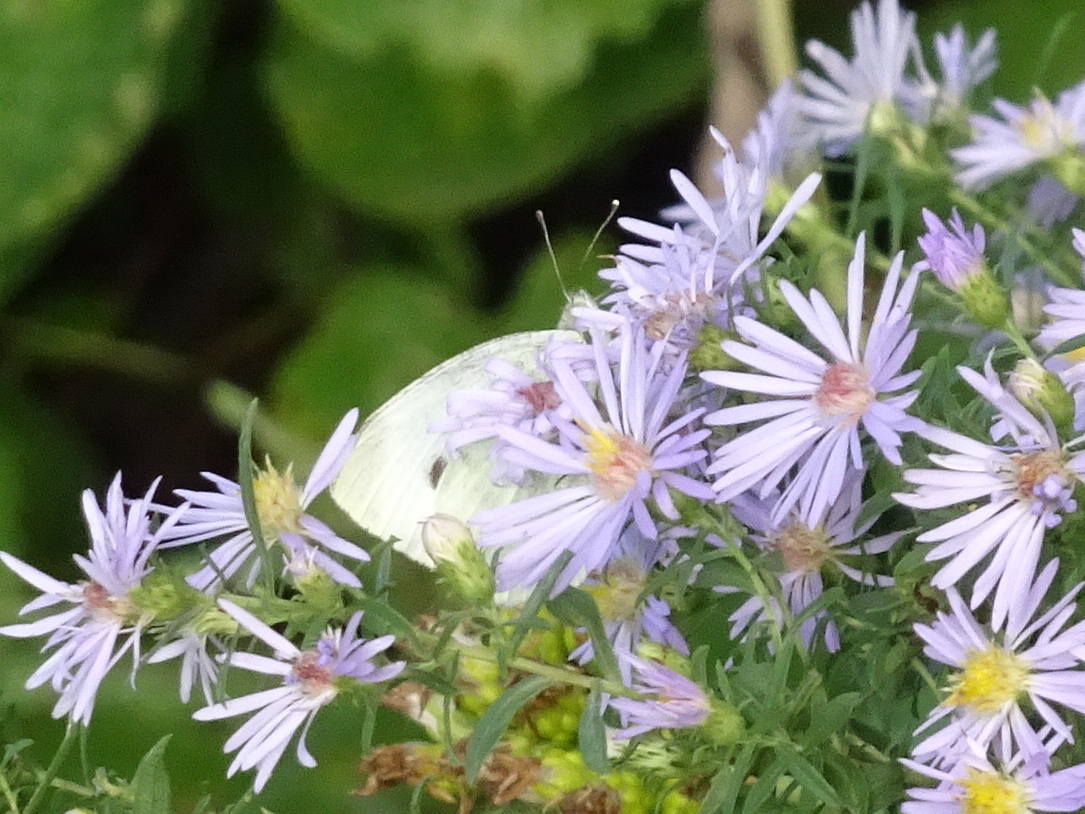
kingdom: Animalia
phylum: Arthropoda
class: Insecta
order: Lepidoptera
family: Pieridae
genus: Pieris
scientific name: Pieris rapae
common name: Small white
